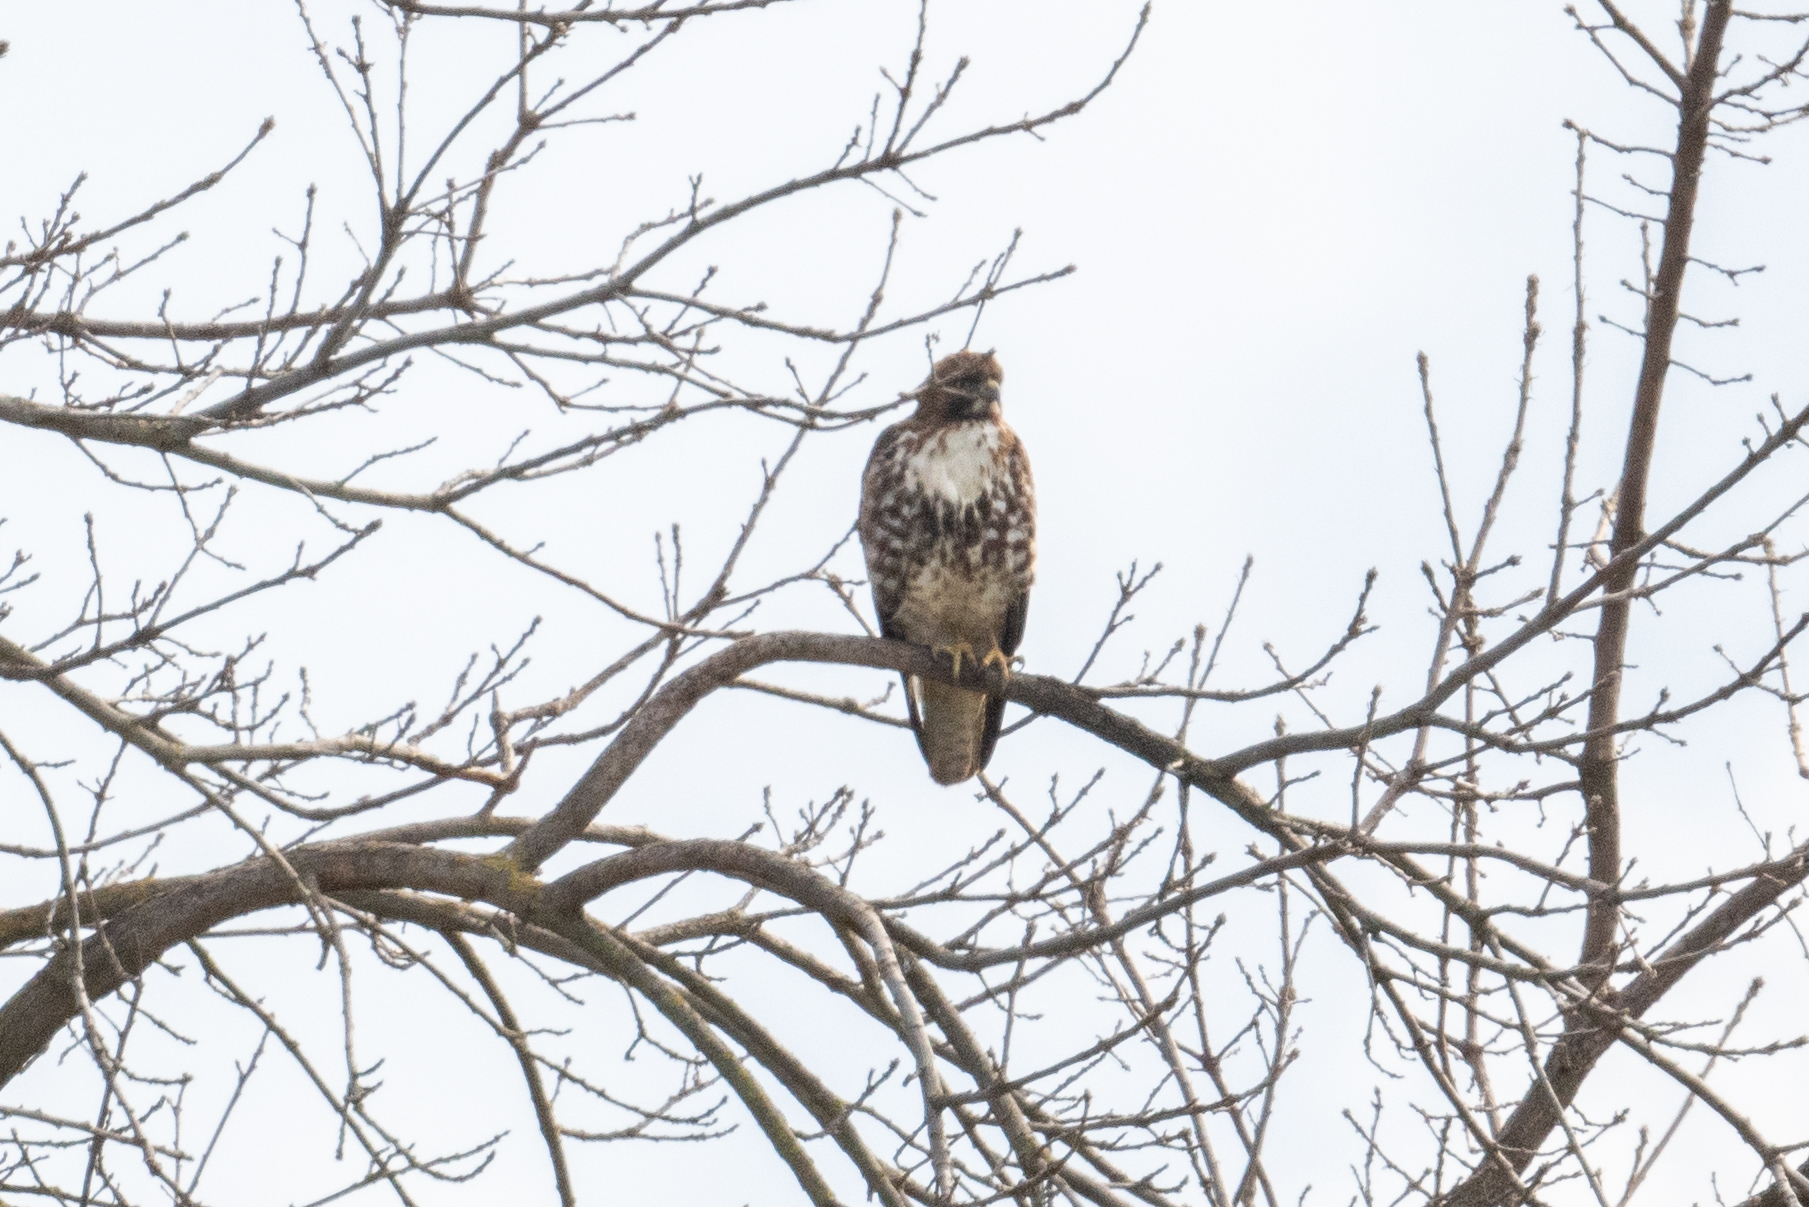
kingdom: Animalia
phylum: Chordata
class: Aves
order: Accipitriformes
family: Accipitridae
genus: Buteo
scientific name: Buteo jamaicensis
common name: Red-tailed hawk
